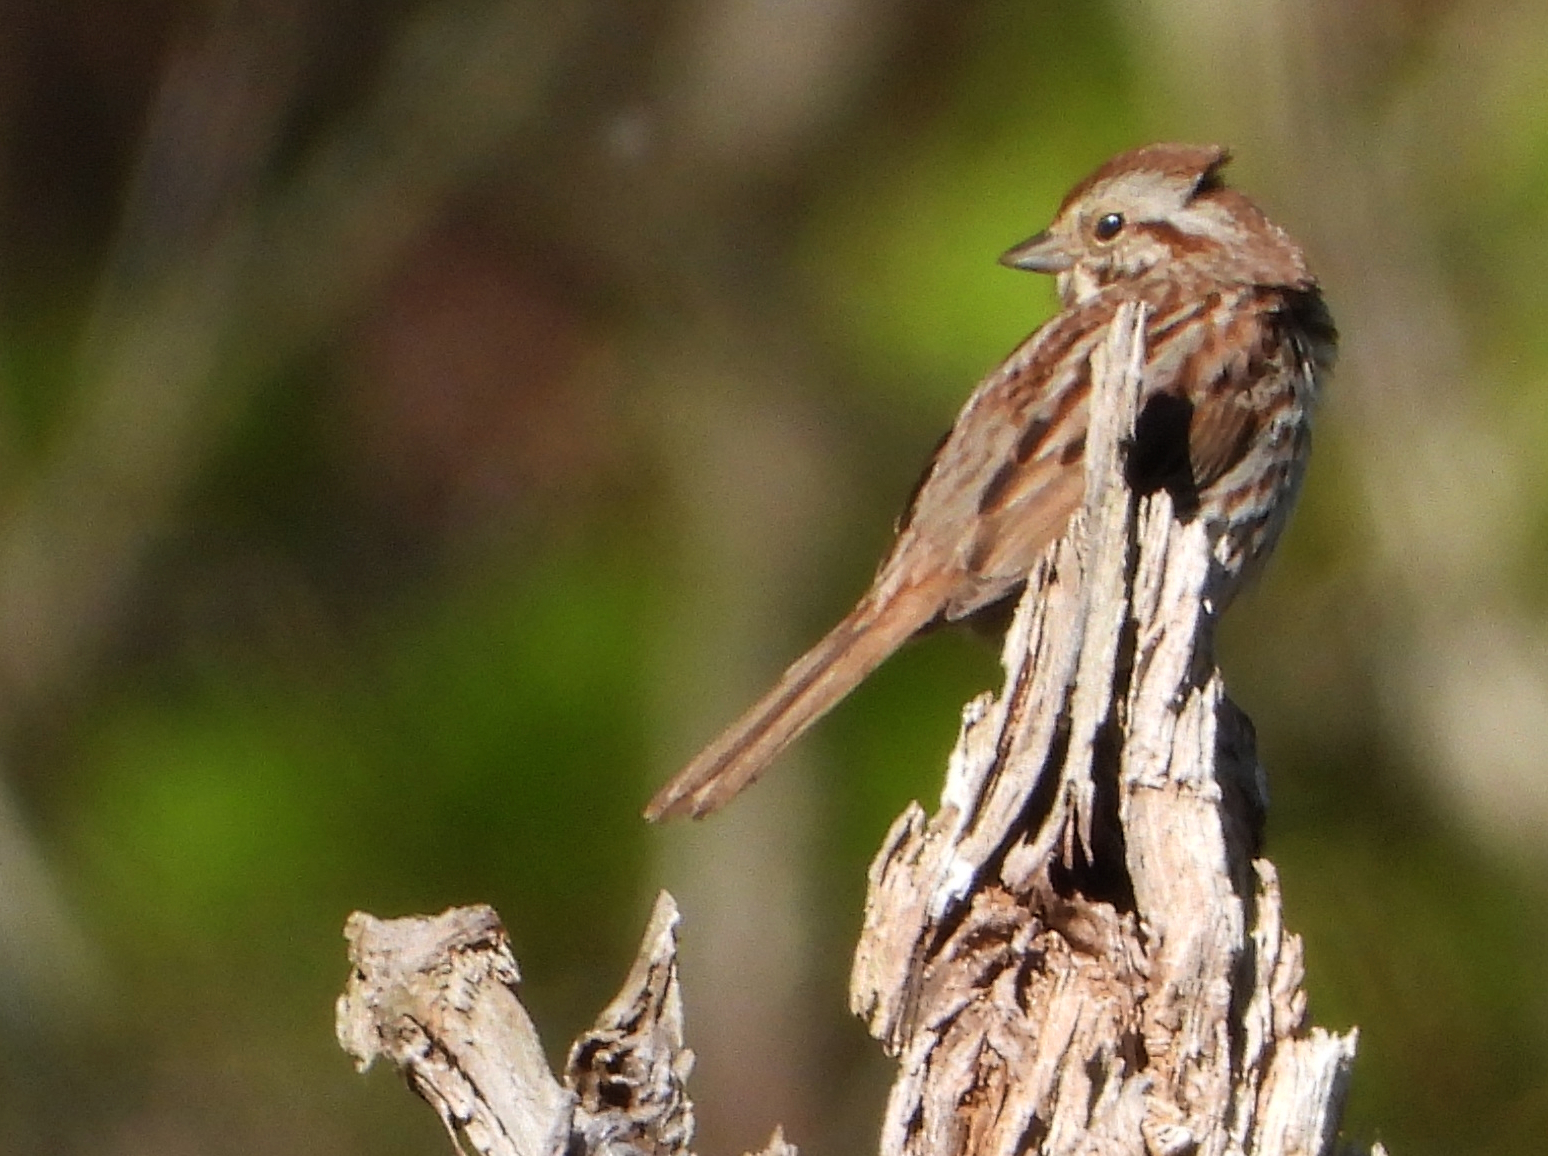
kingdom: Animalia
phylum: Chordata
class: Aves
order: Passeriformes
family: Passerellidae
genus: Melospiza
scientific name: Melospiza melodia
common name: Song sparrow
